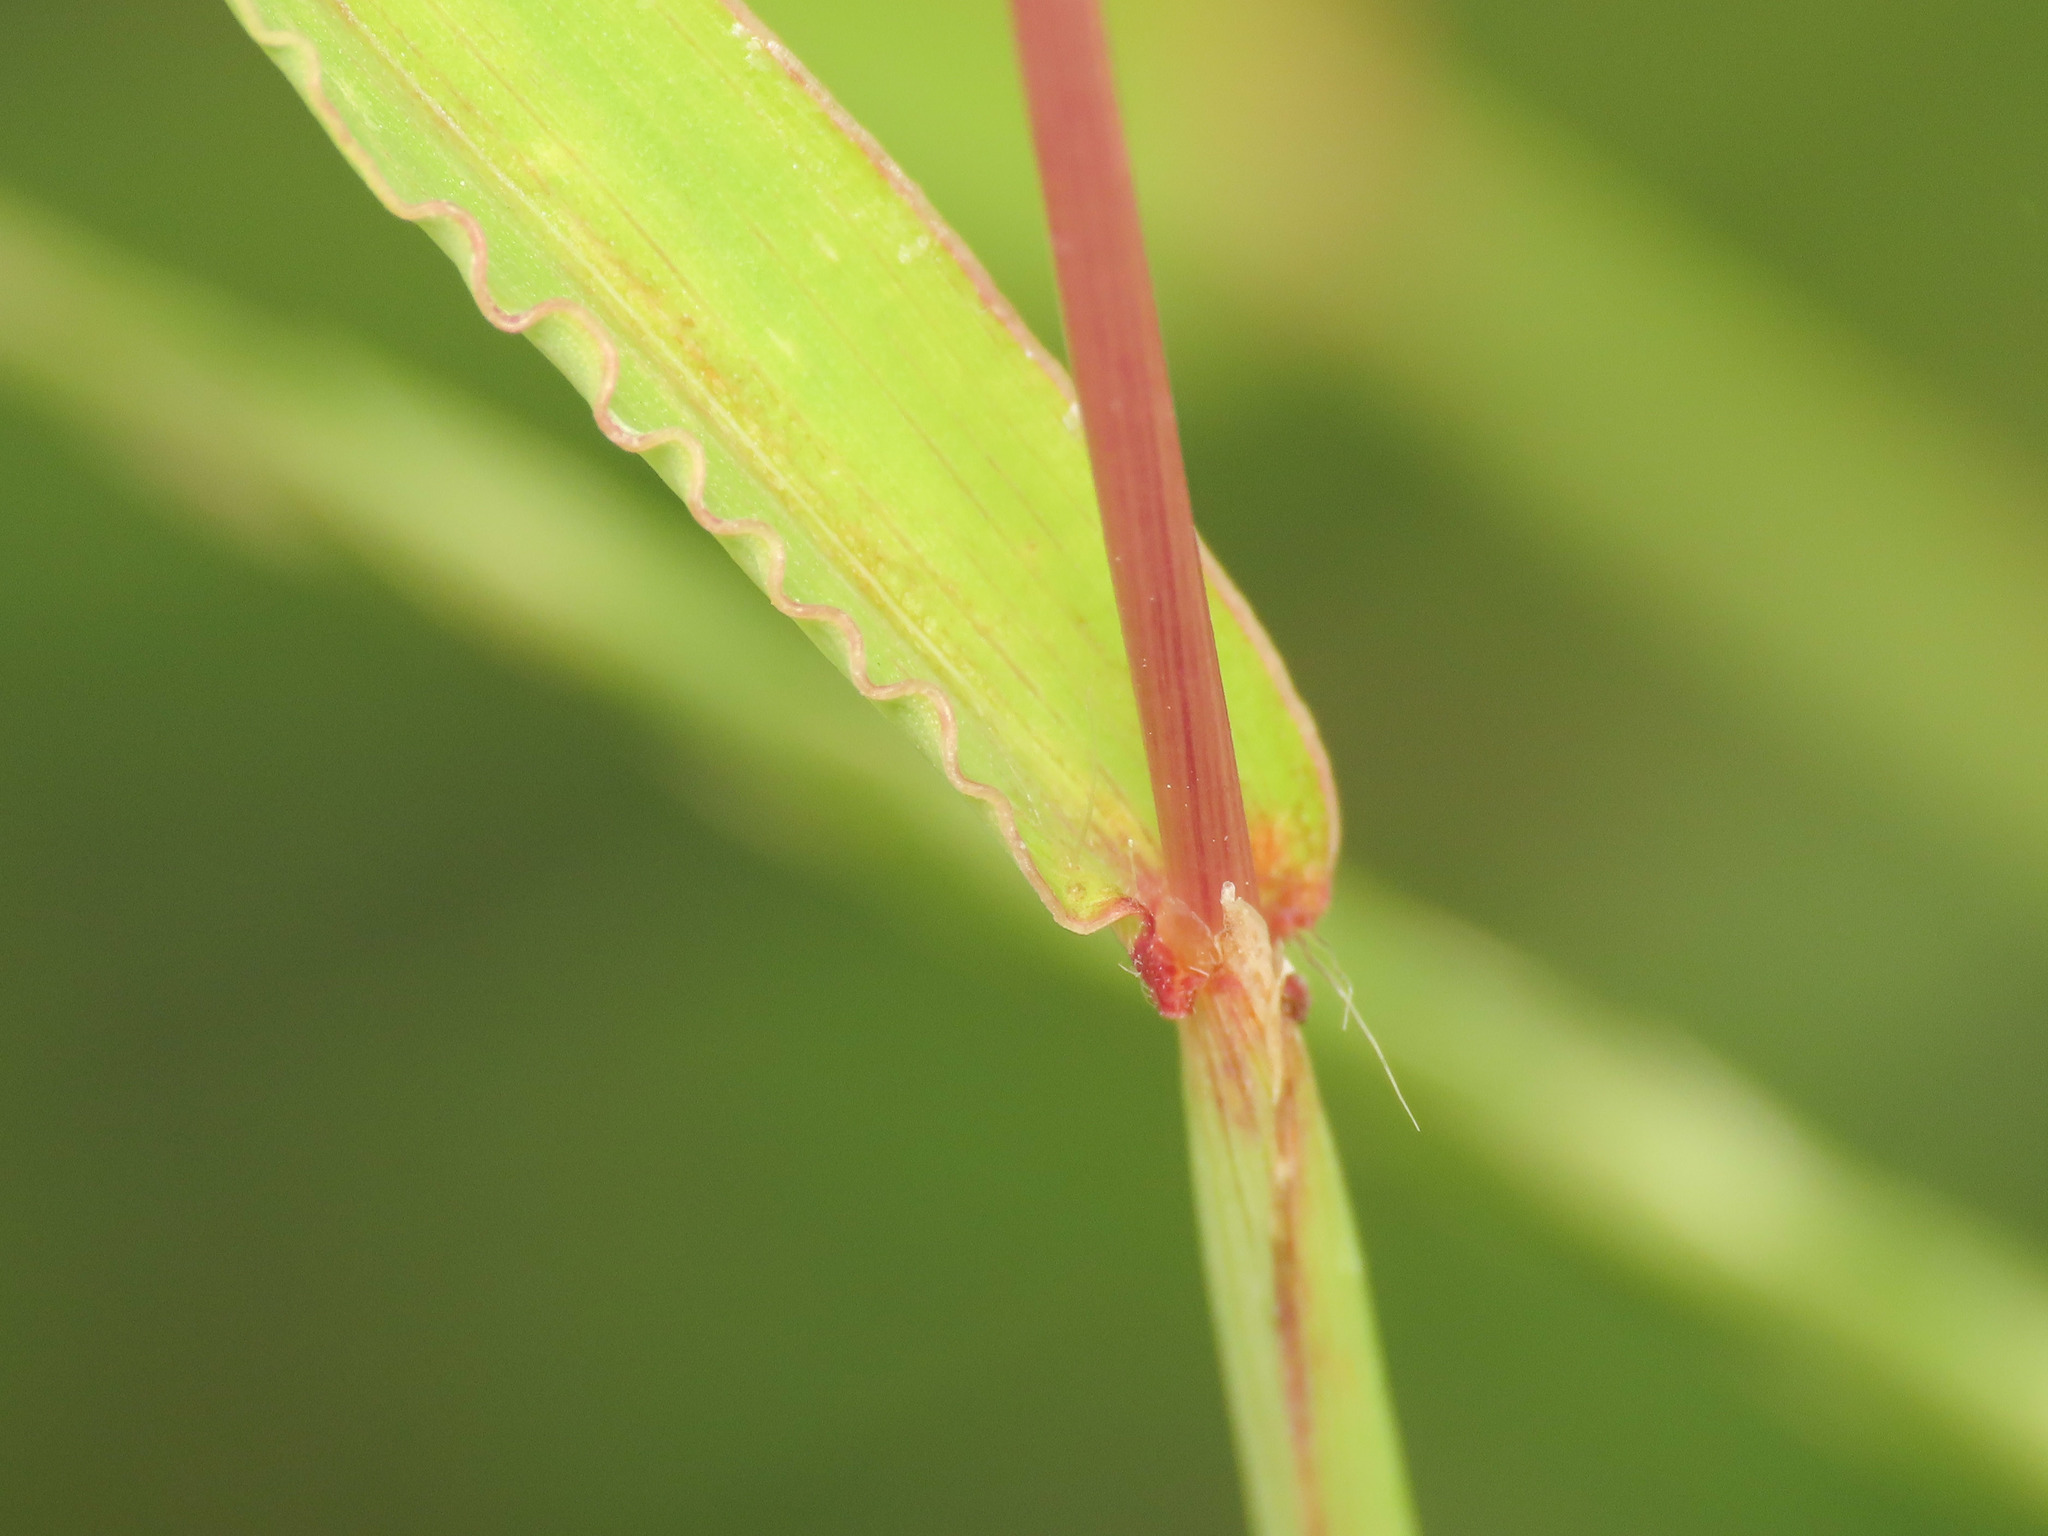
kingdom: Plantae
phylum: Tracheophyta
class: Liliopsida
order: Poales
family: Poaceae
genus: Digitaria
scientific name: Digitaria sanguinalis
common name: Hairy crabgrass
